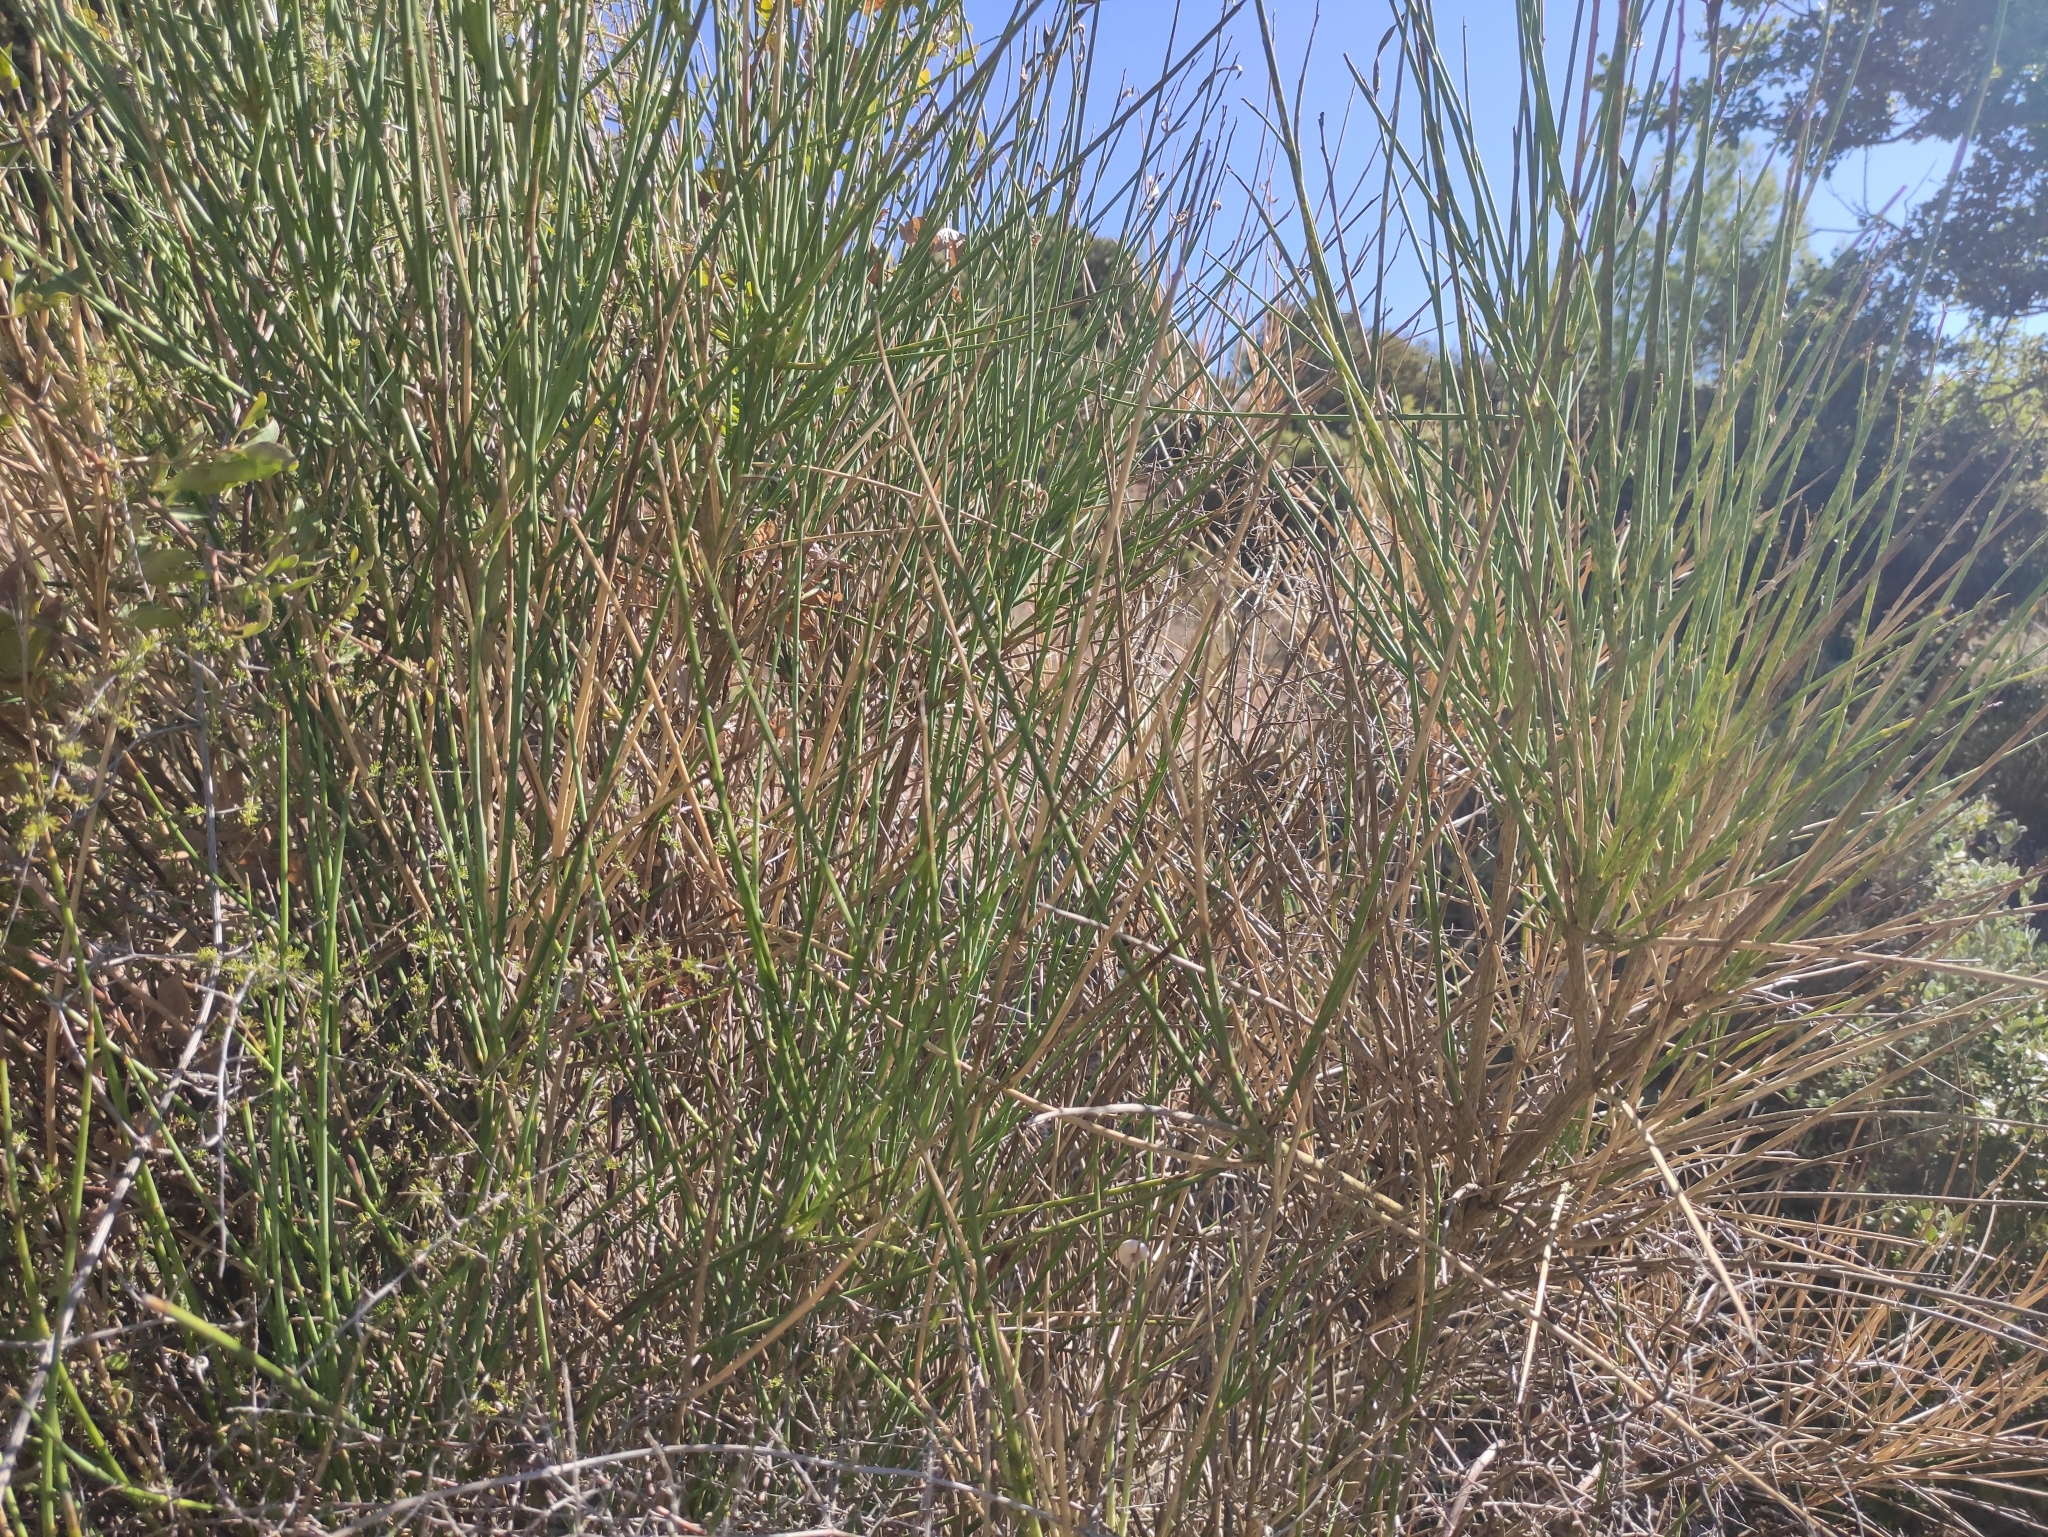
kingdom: Plantae
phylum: Tracheophyta
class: Magnoliopsida
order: Fabales
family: Fabaceae
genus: Spartium
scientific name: Spartium junceum
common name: Spanish broom
